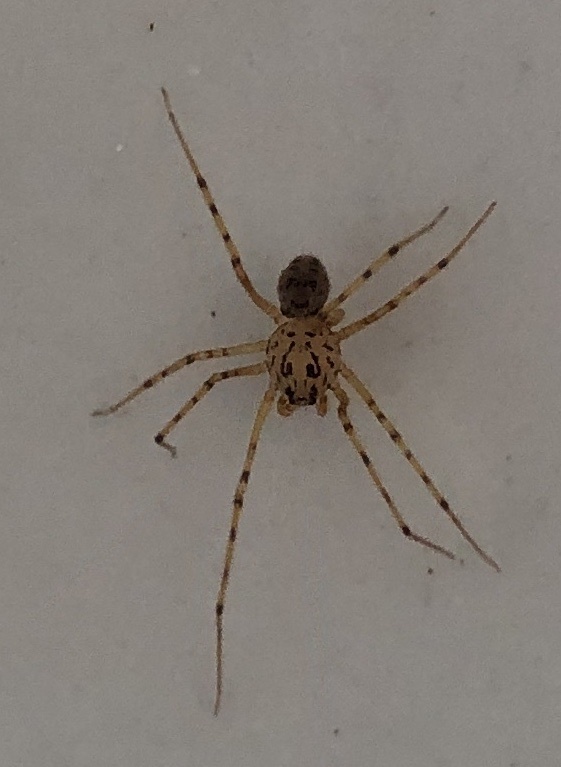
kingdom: Animalia
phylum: Arthropoda
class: Arachnida
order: Araneae
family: Scytodidae
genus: Scytodes
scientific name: Scytodes thoracica
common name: Spitting spider
